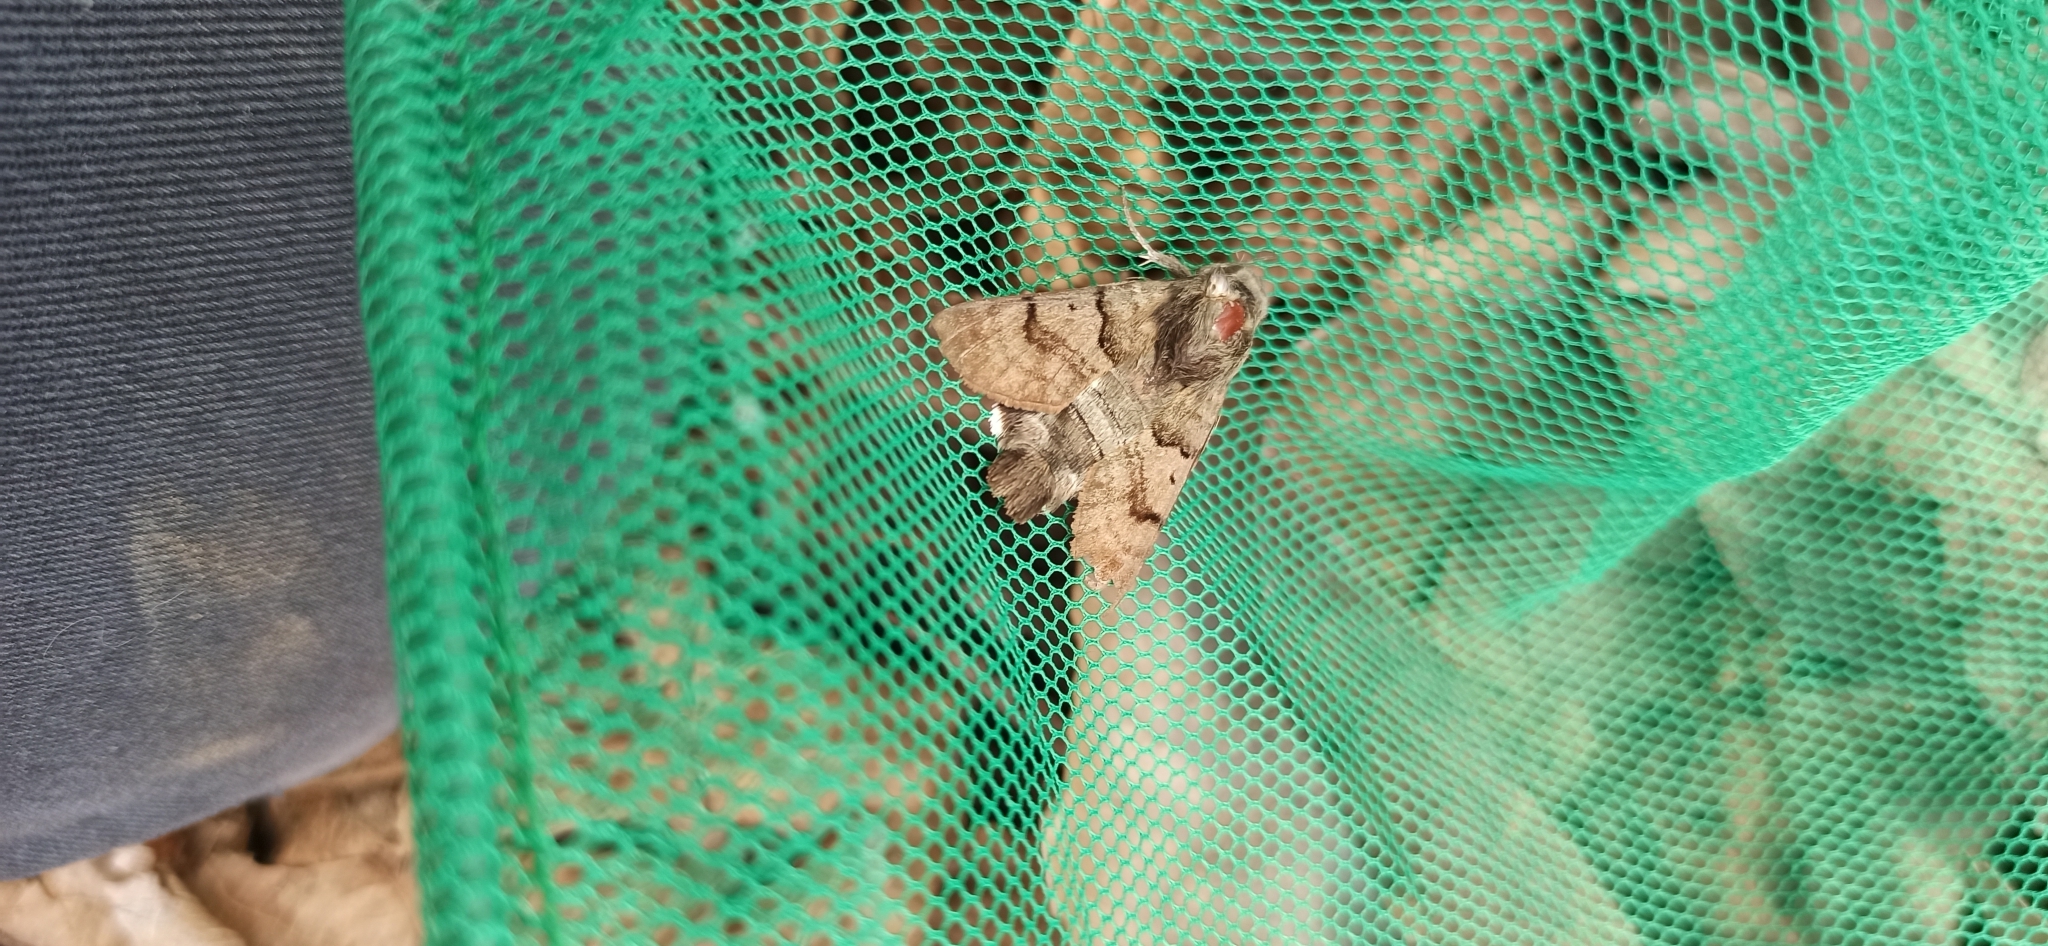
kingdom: Animalia
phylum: Arthropoda
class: Insecta
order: Lepidoptera
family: Sphingidae
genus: Macroglossum
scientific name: Macroglossum stellatarum
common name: Humming-bird hawk-moth
